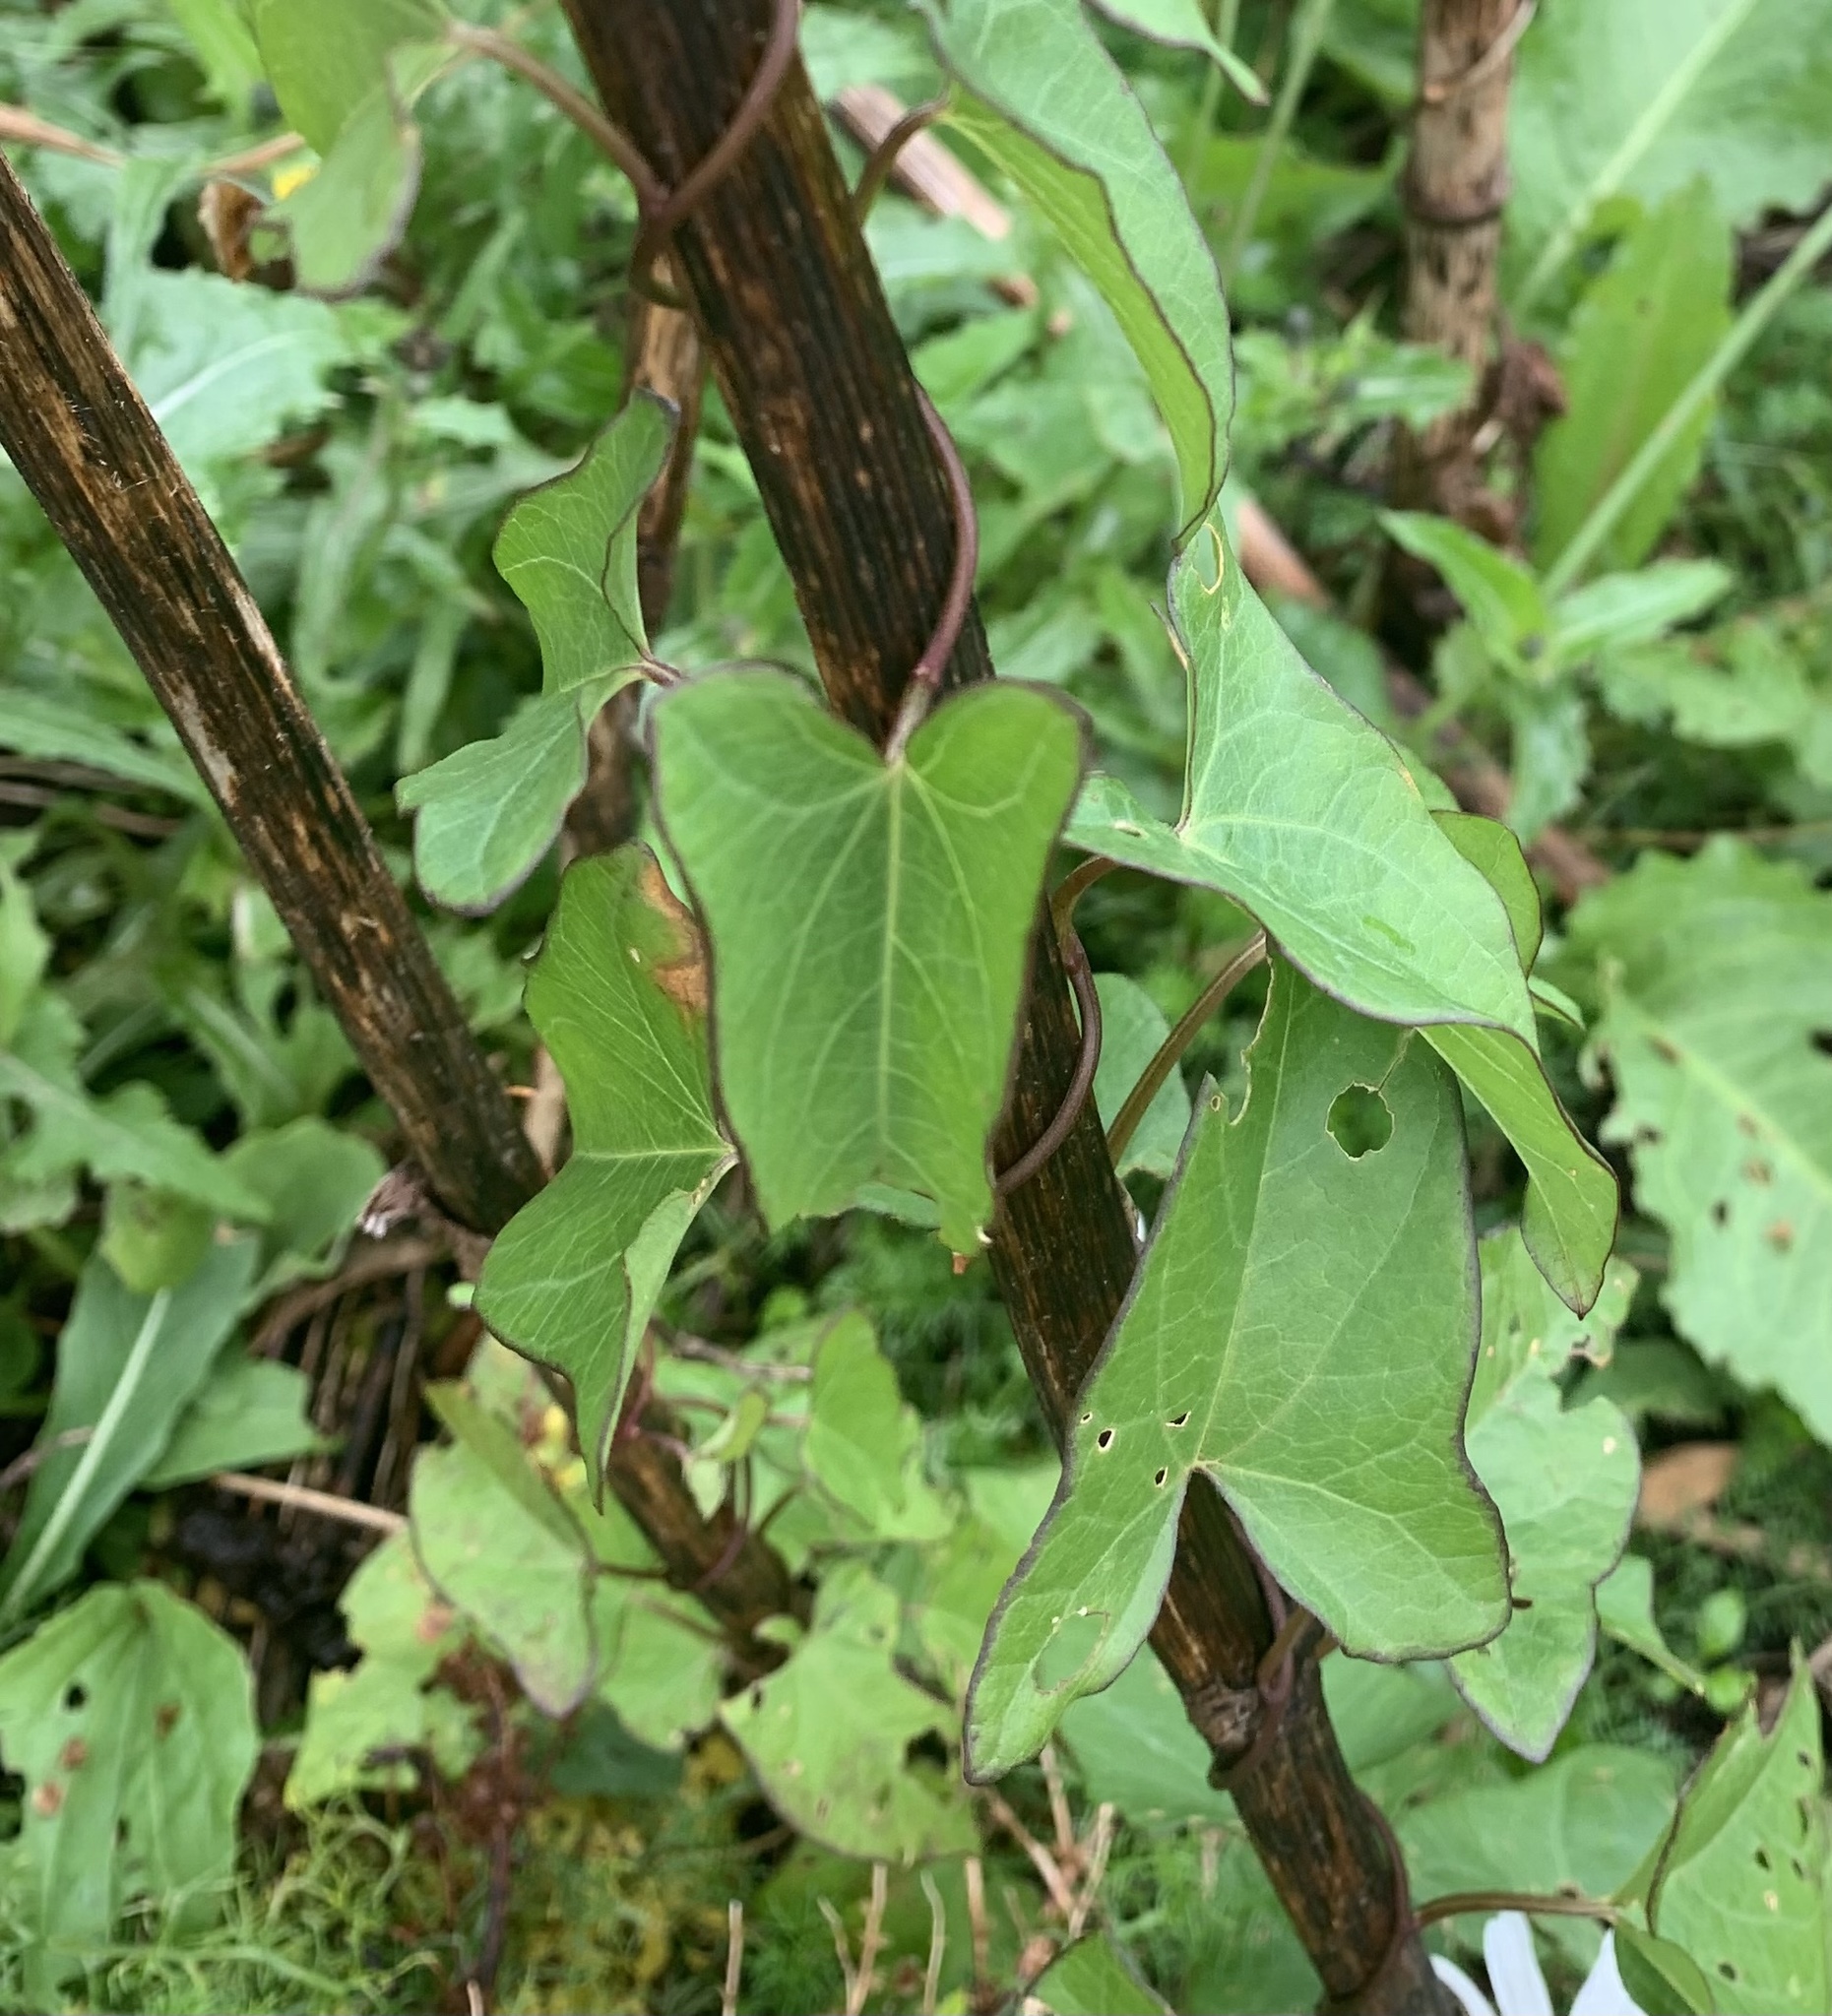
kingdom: Plantae
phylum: Tracheophyta
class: Magnoliopsida
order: Solanales
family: Convolvulaceae
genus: Calystegia
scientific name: Calystegia sepium
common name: Hedge bindweed
